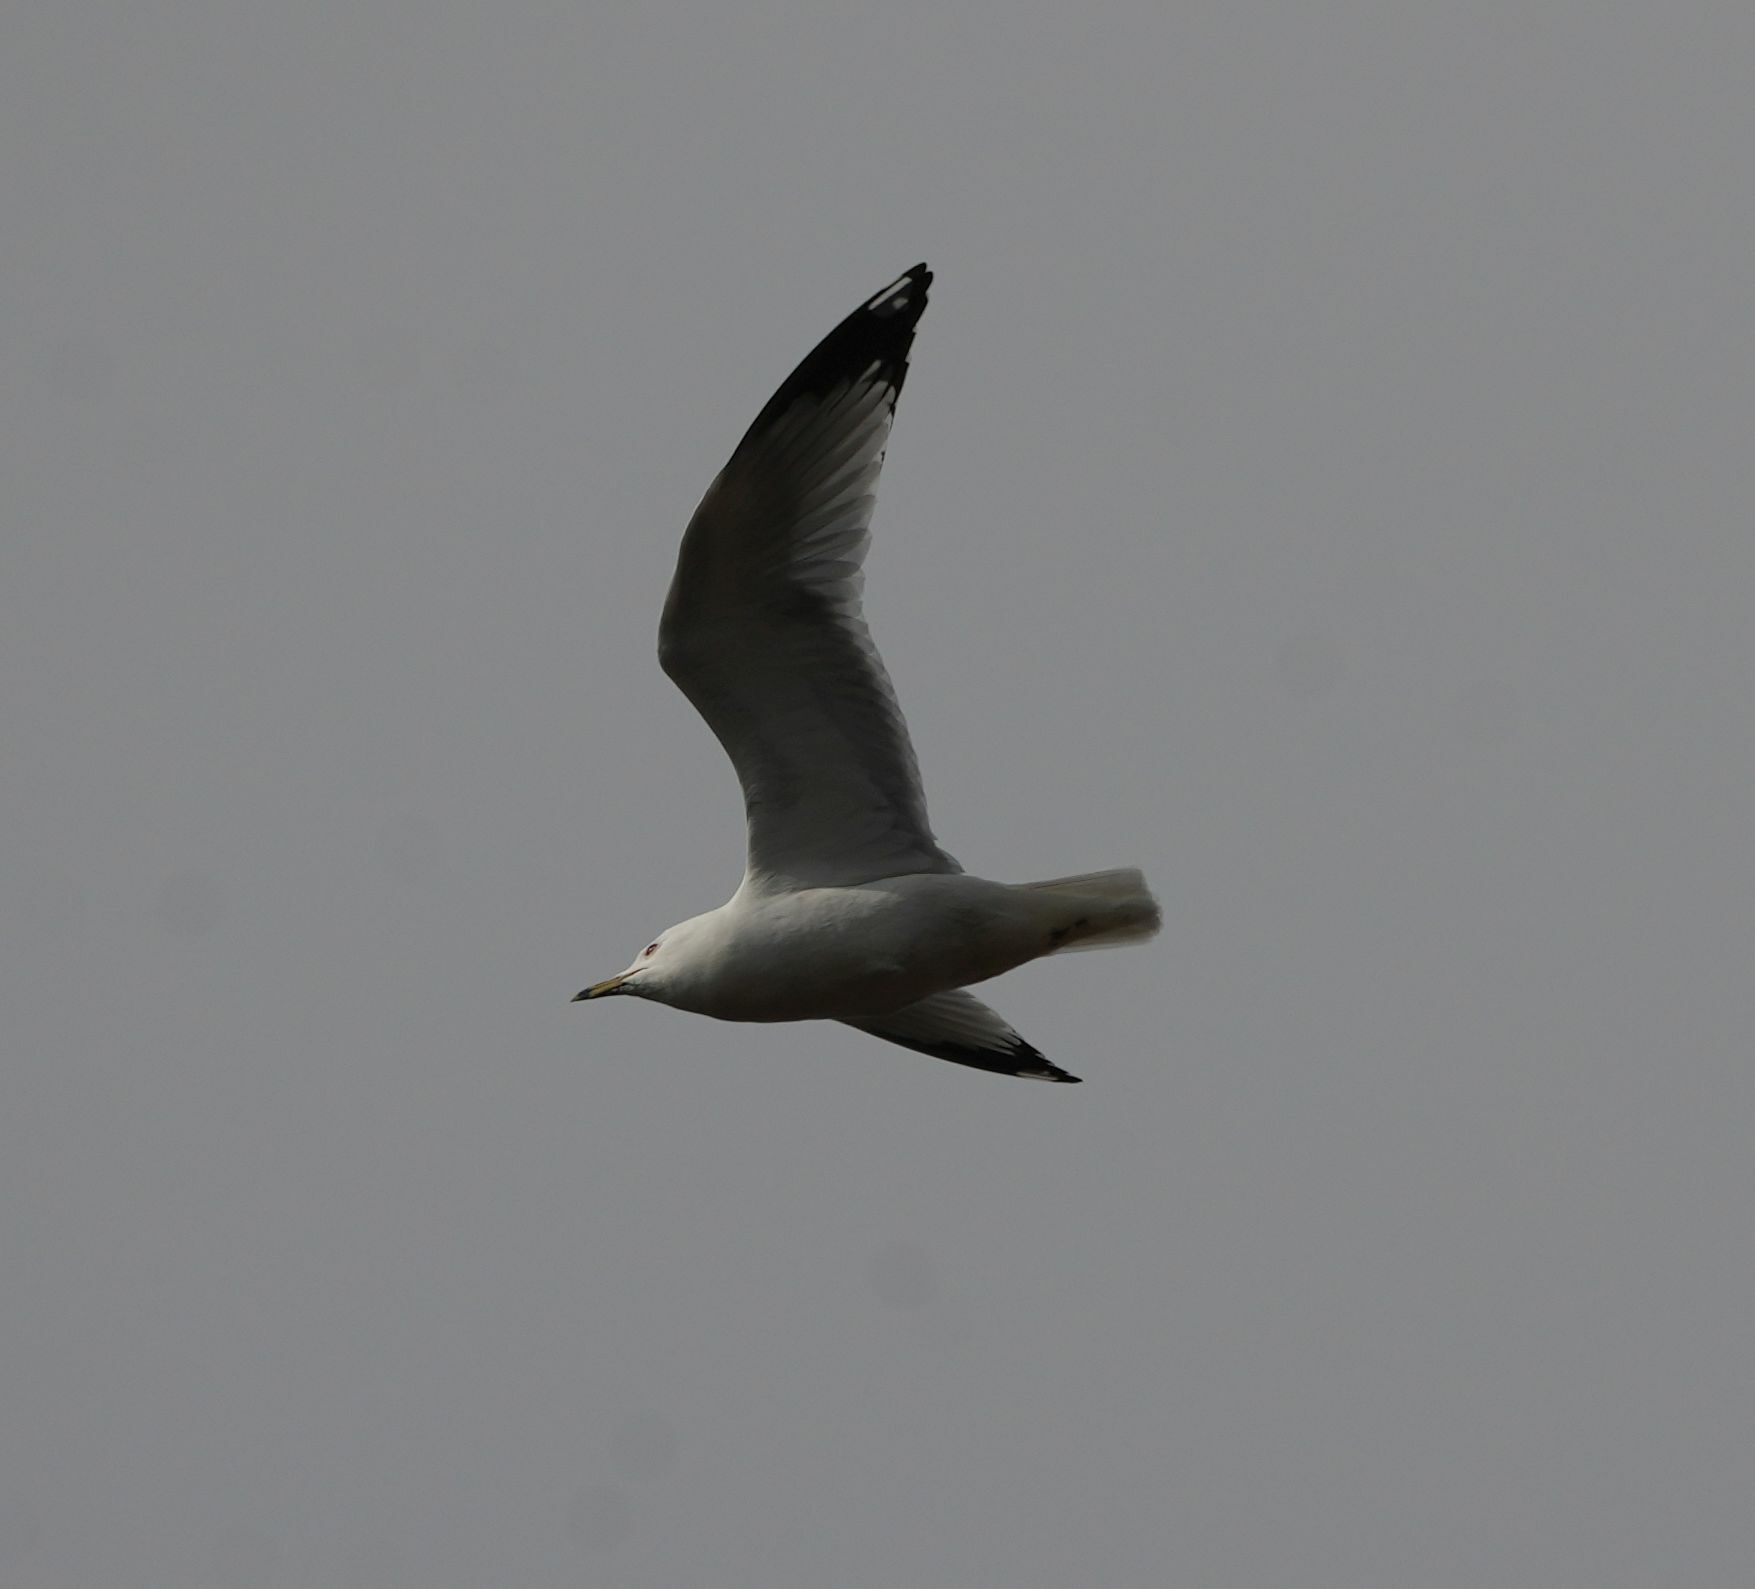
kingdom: Animalia
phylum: Chordata
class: Aves
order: Charadriiformes
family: Laridae
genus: Larus
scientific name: Larus delawarensis
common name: Ring-billed gull
